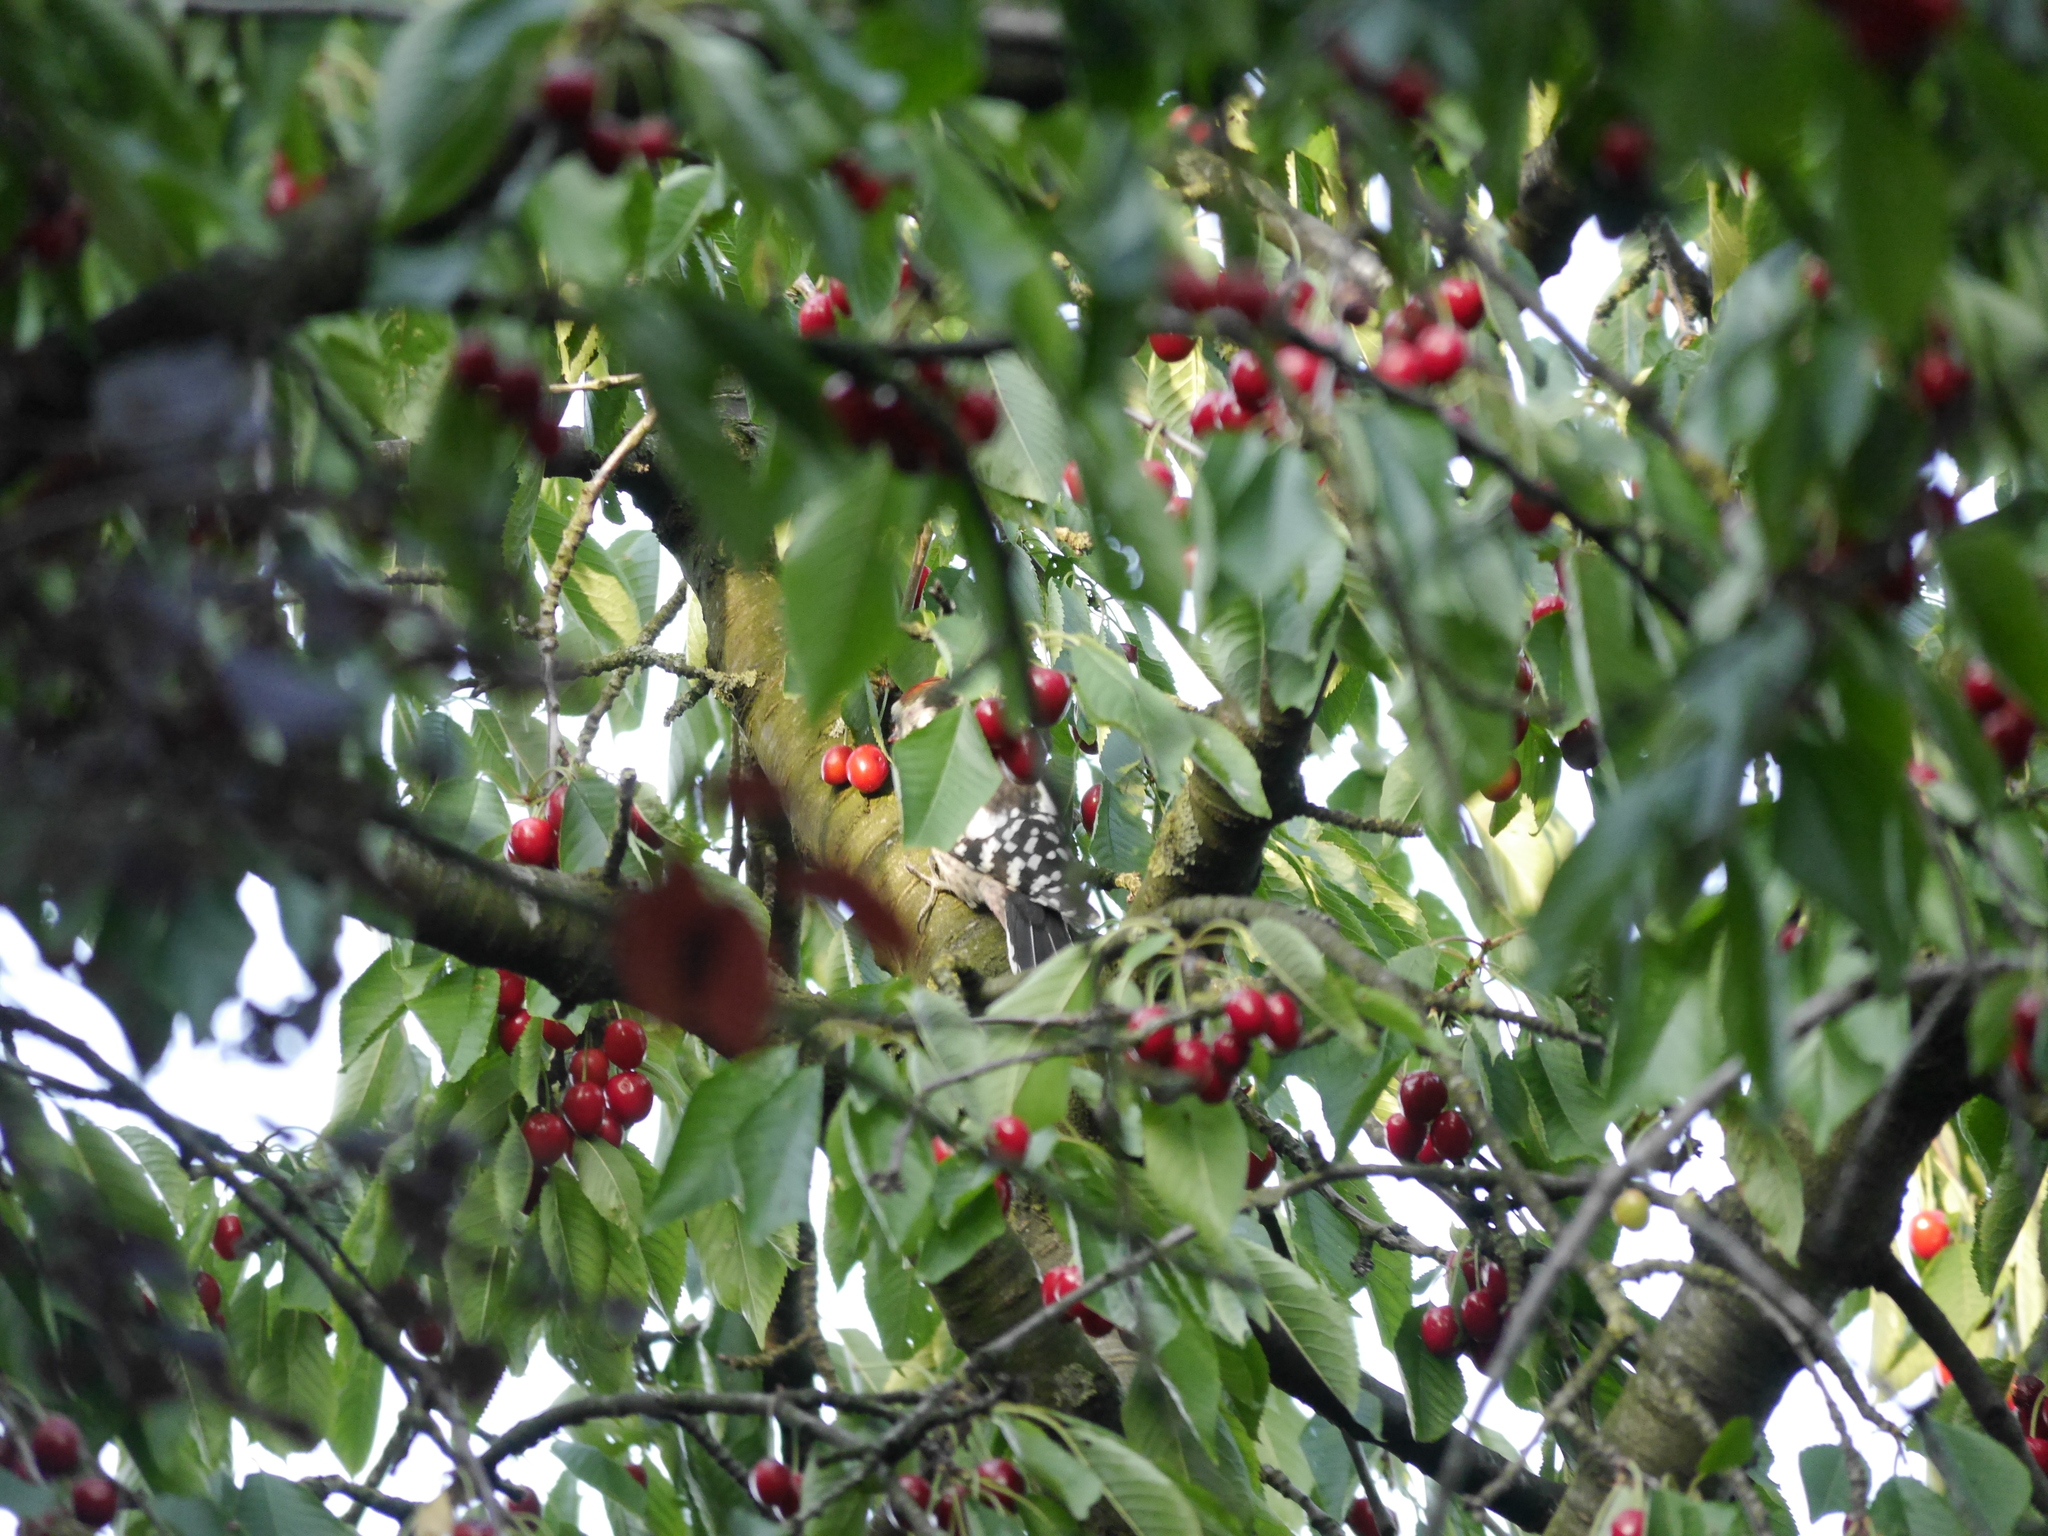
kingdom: Animalia
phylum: Chordata
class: Aves
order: Piciformes
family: Picidae
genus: Dendrocoptes
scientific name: Dendrocoptes medius
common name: Middle spotted woodpecker
